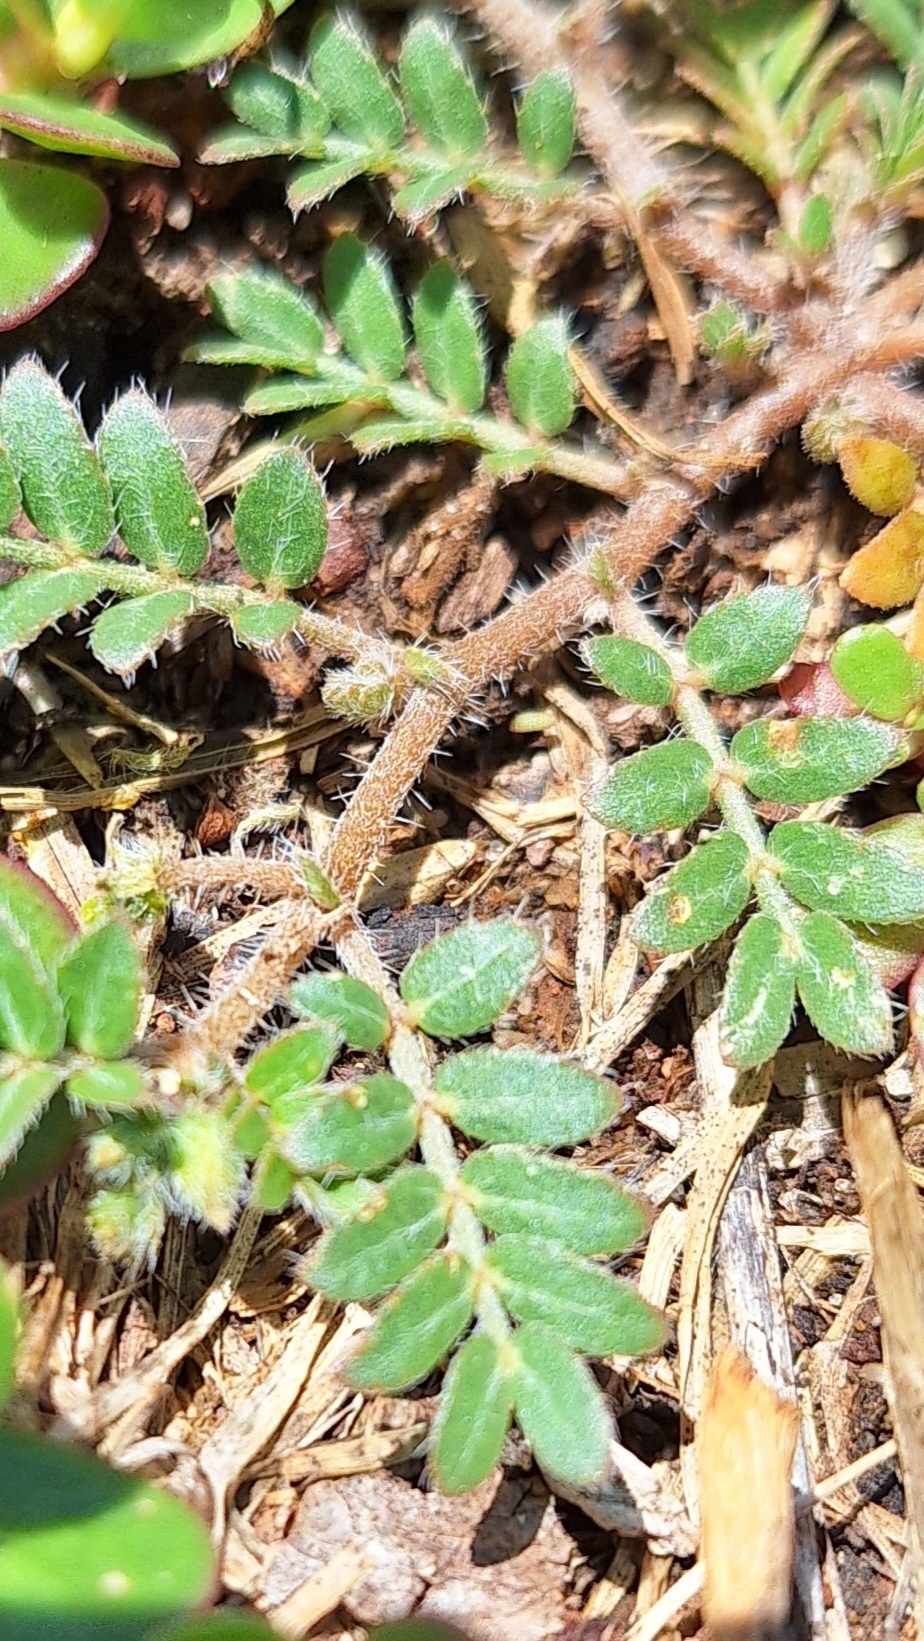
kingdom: Plantae
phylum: Tracheophyta
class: Magnoliopsida
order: Zygophyllales
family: Zygophyllaceae
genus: Tribulus
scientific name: Tribulus terrestris
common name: Puncturevine
